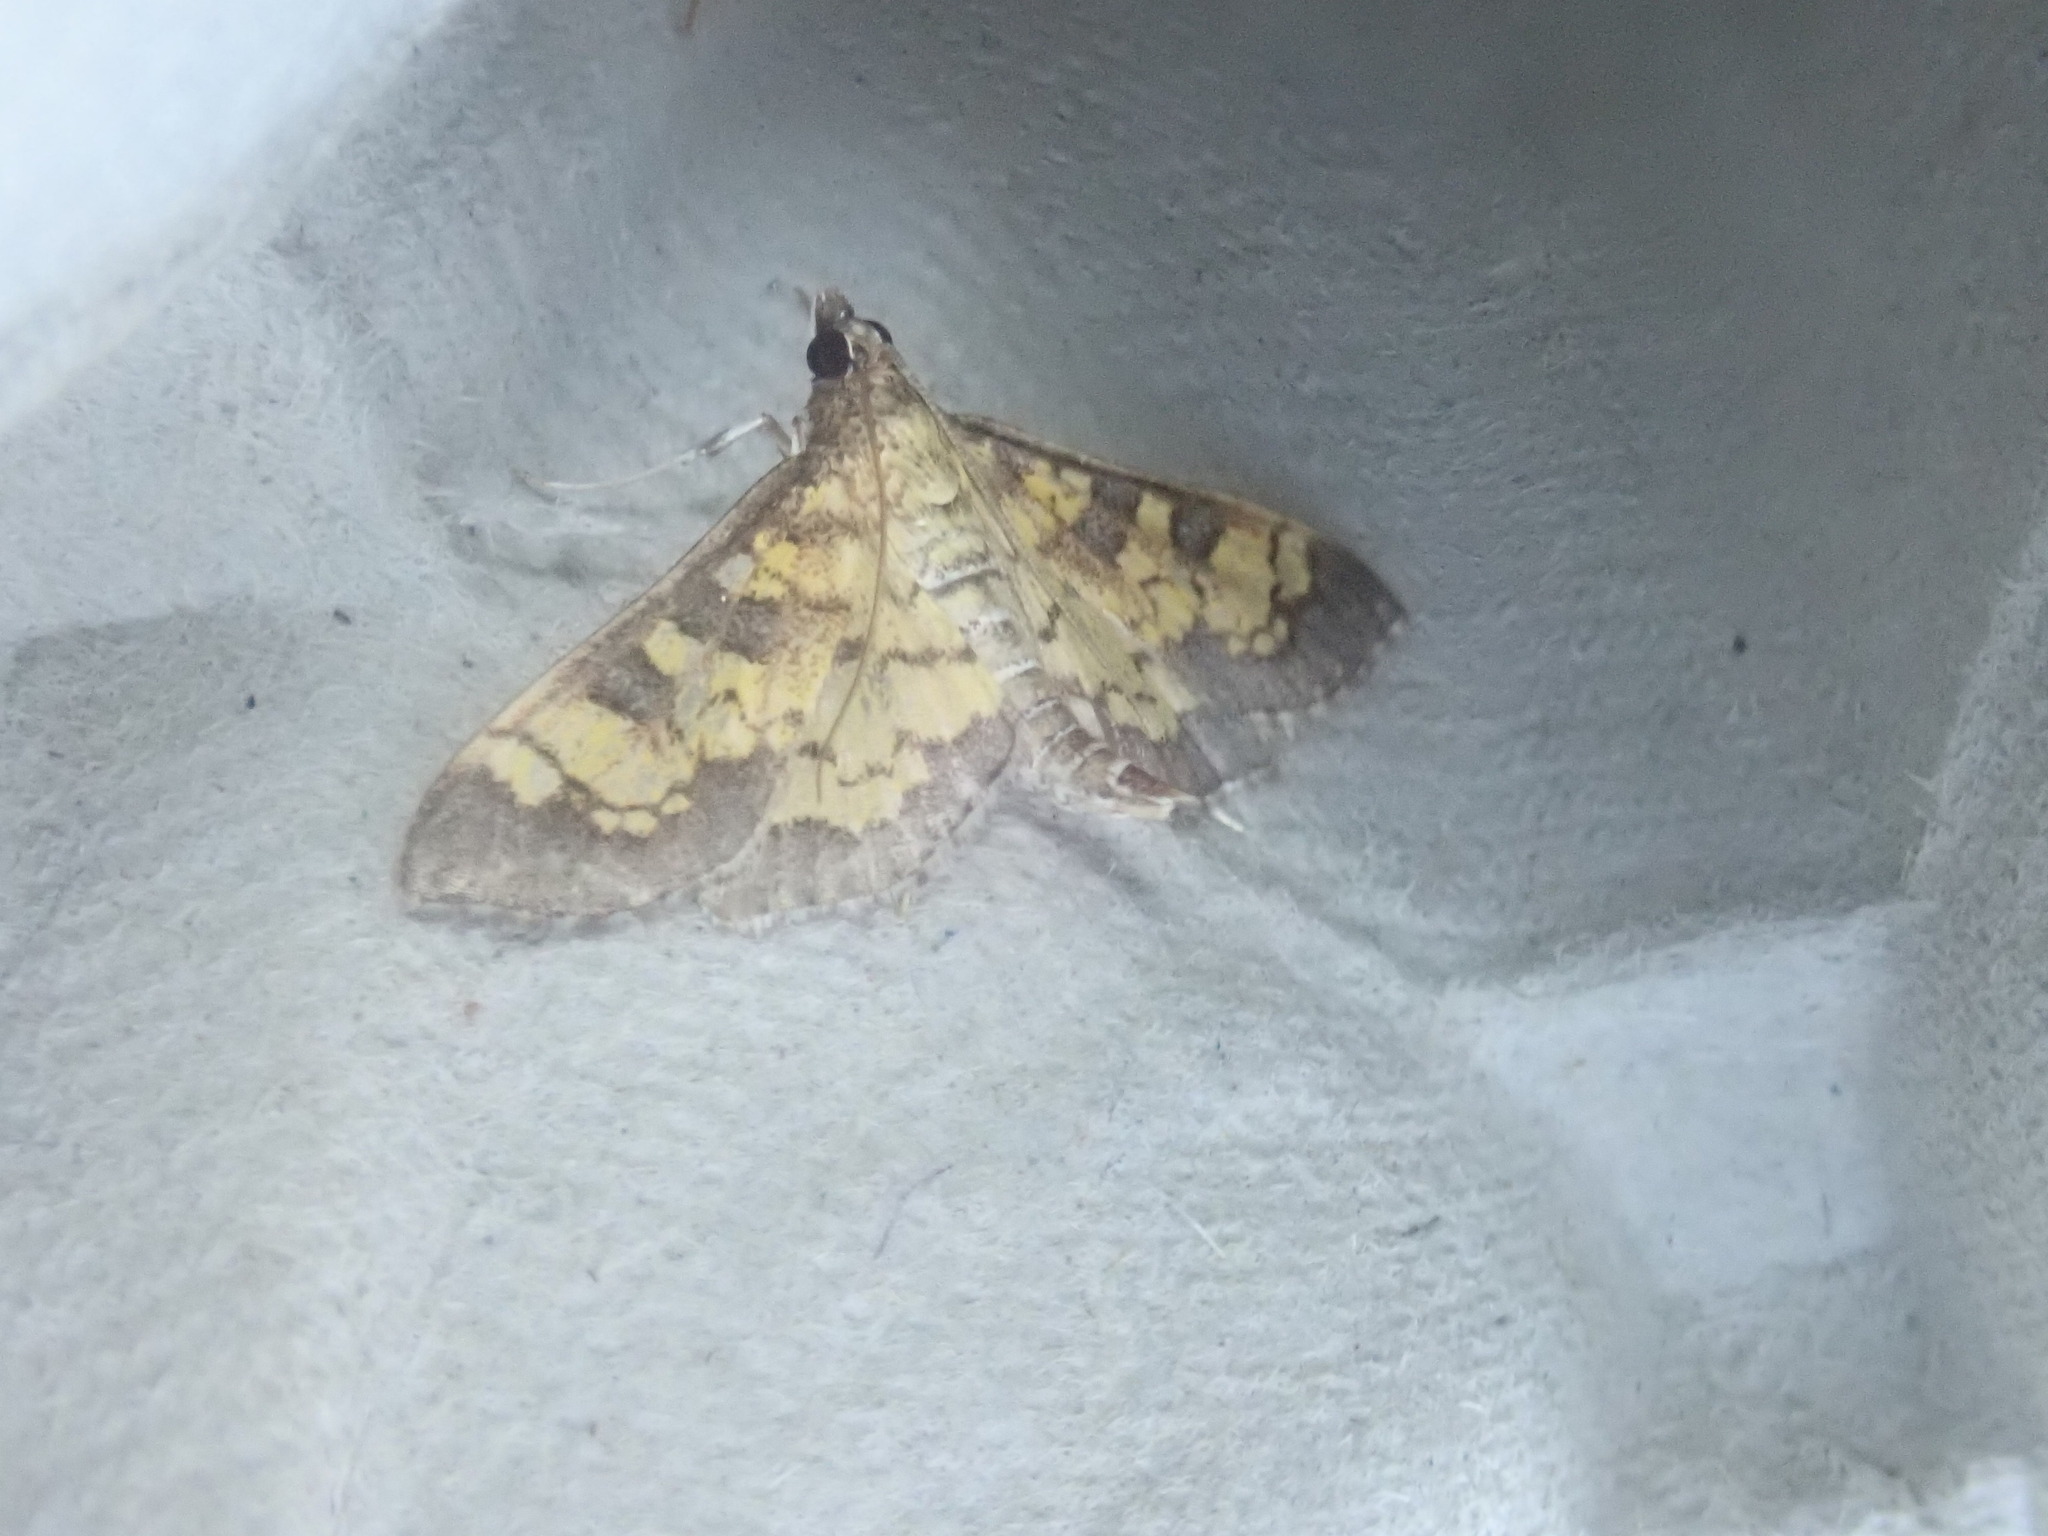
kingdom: Animalia
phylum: Arthropoda
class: Insecta
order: Lepidoptera
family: Crambidae
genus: Epipagis
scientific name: Epipagis adipaloides
